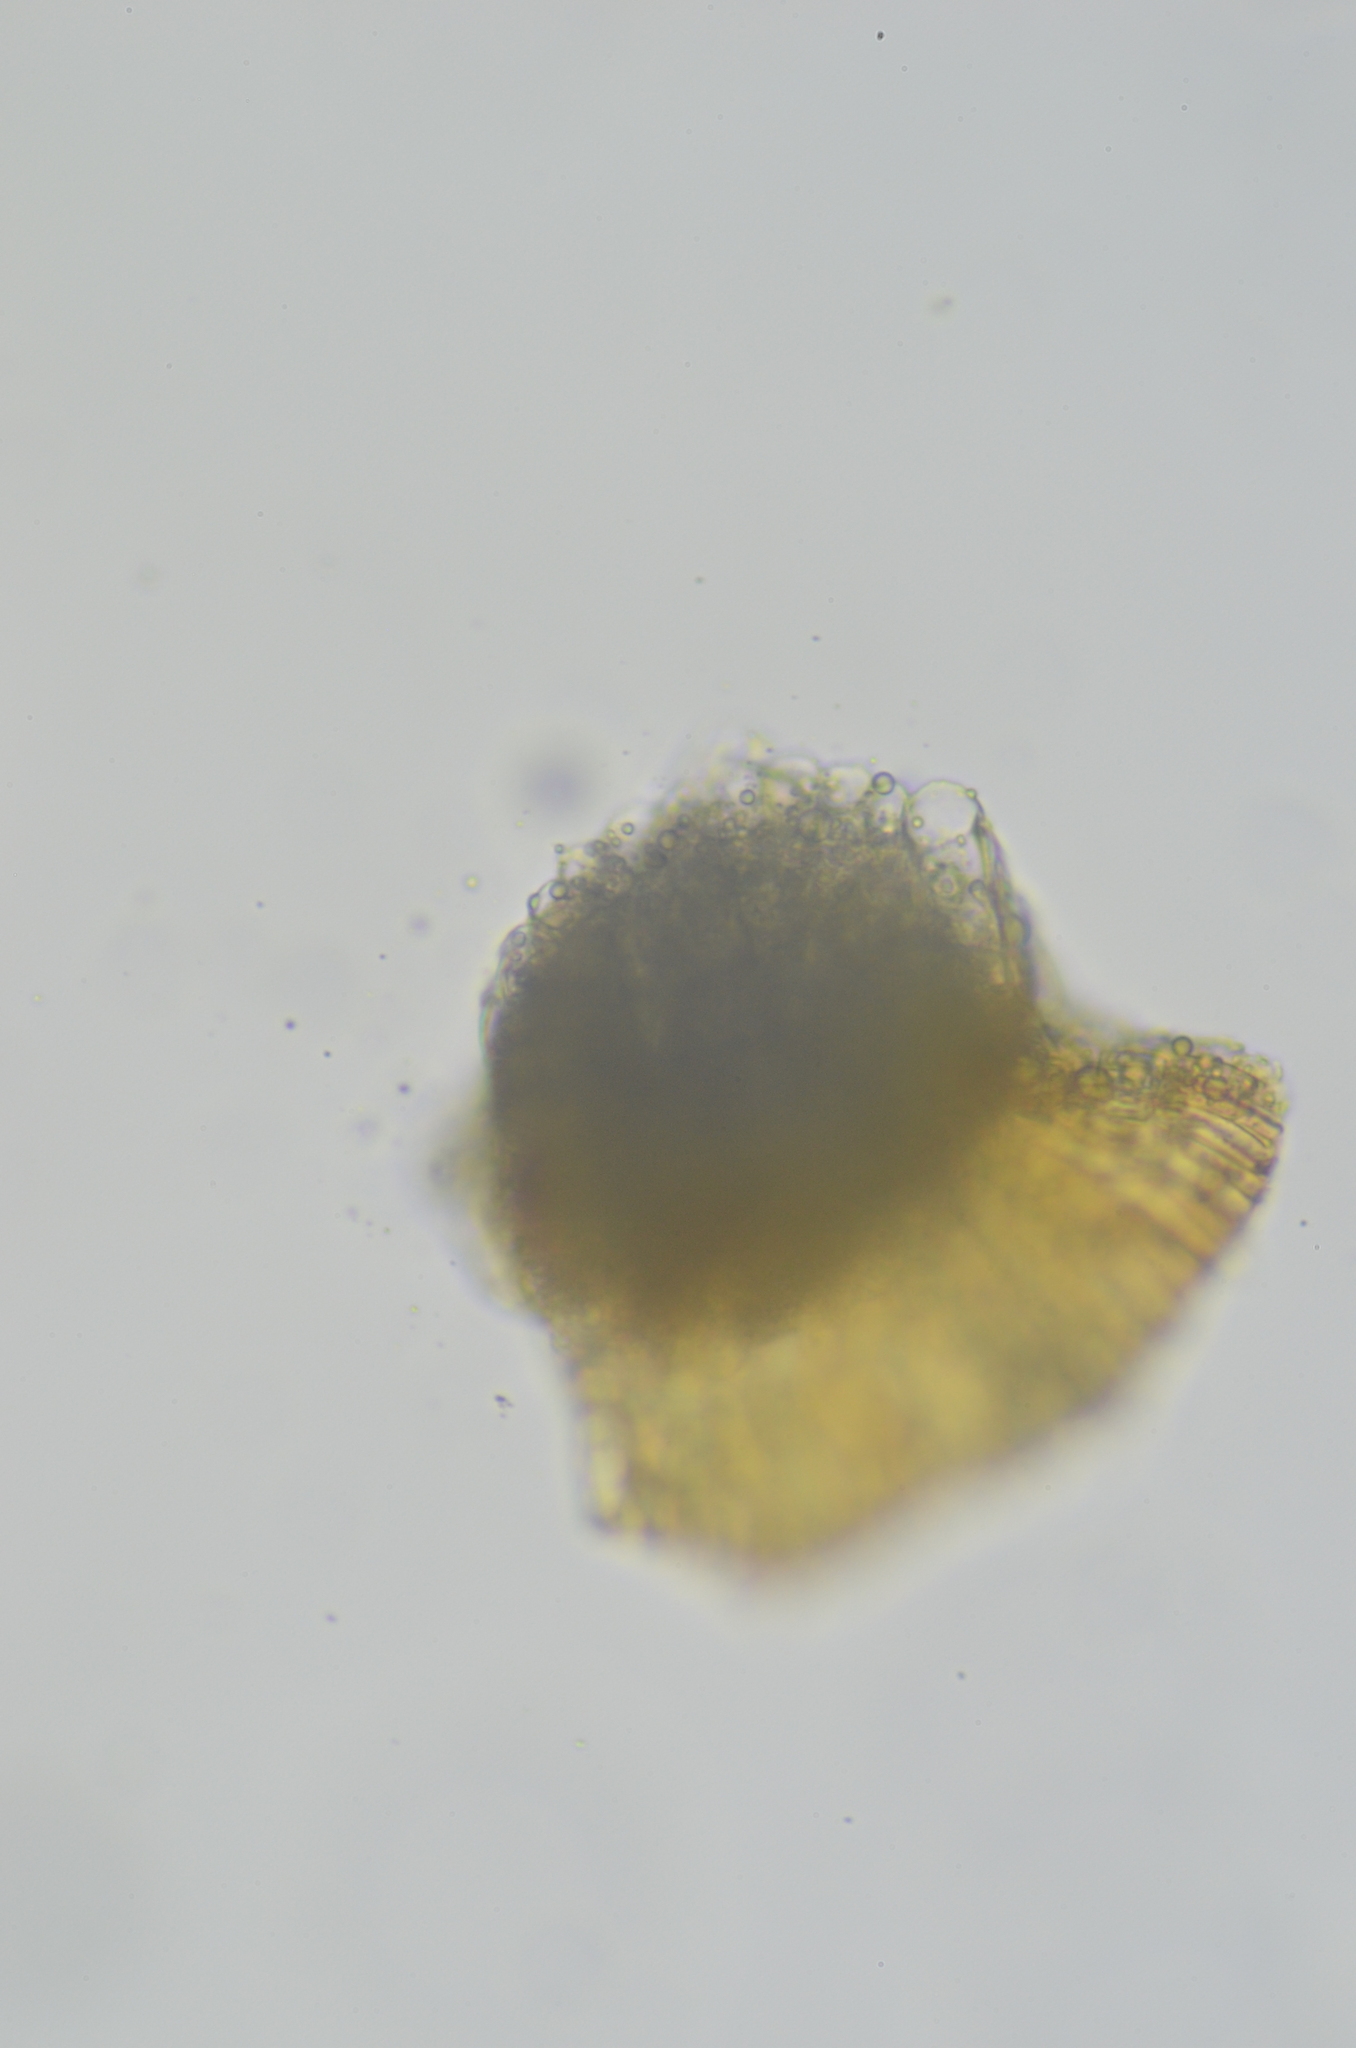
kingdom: Plantae
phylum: Bryophyta
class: Bryopsida
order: Hypnales
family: Pylaisiaceae
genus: Calliergonella
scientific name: Calliergonella lindbergii
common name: Lindberg's plait-moss
